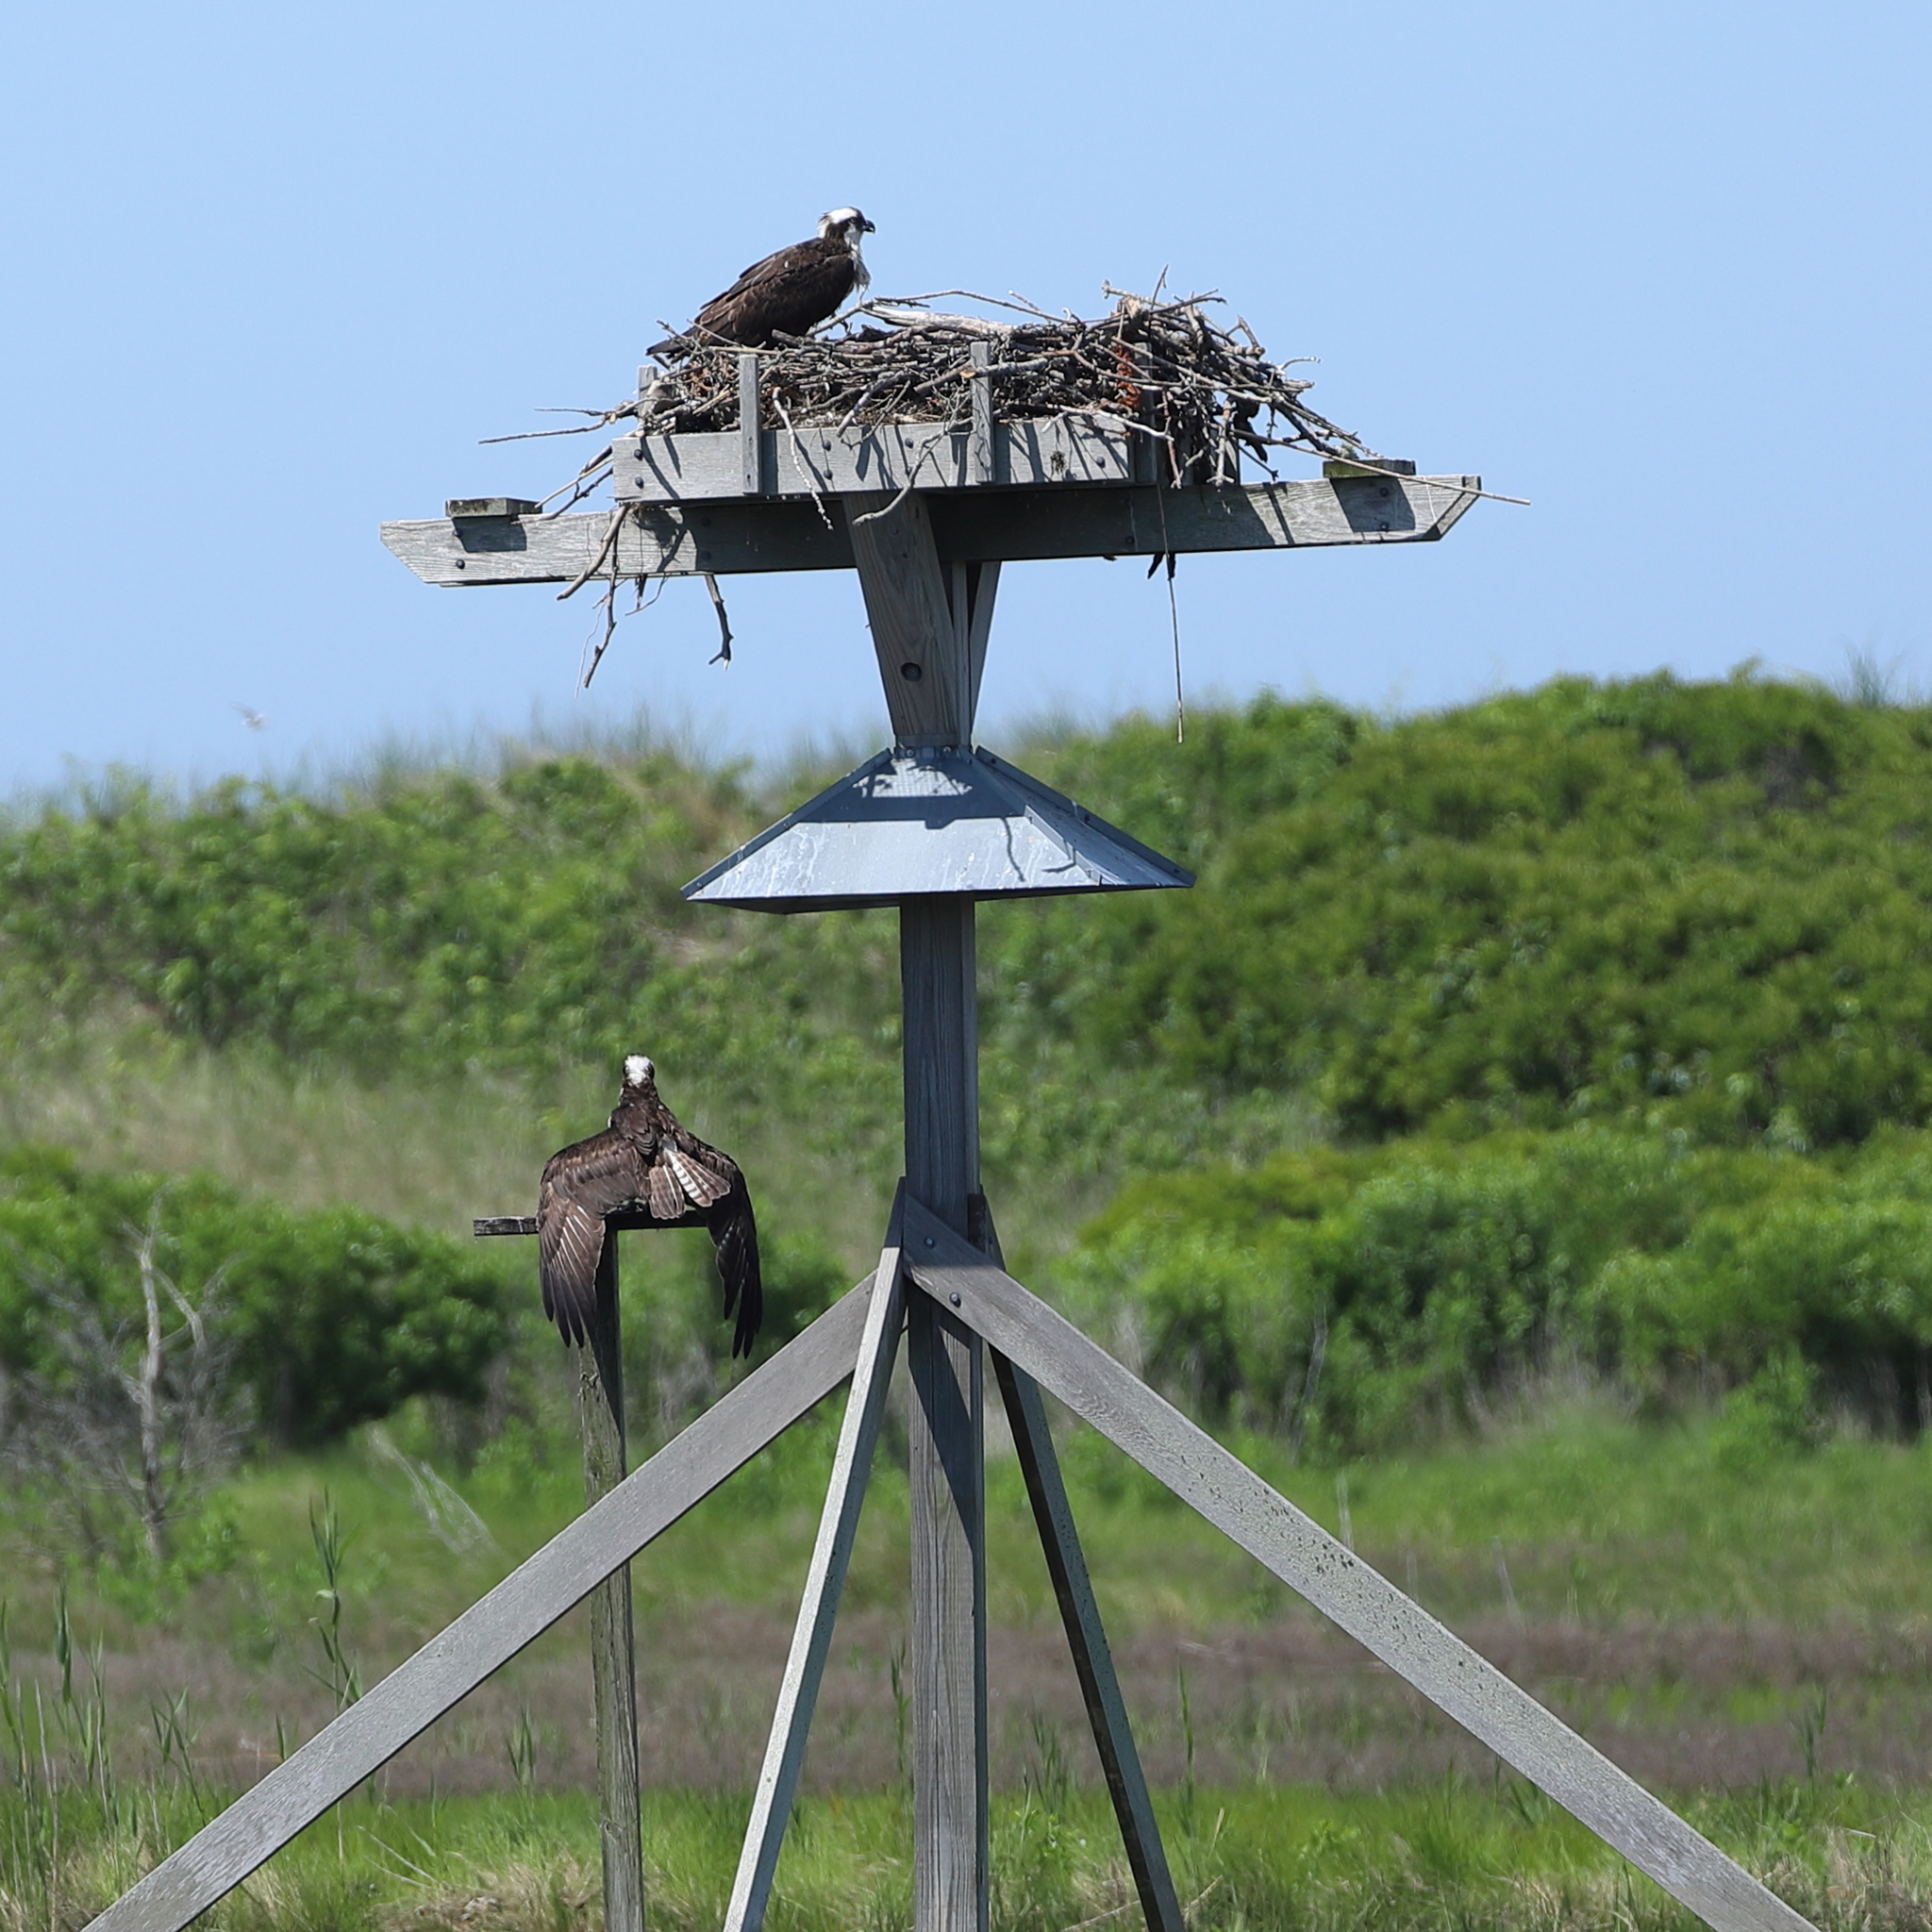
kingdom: Animalia
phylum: Chordata
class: Aves
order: Accipitriformes
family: Pandionidae
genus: Pandion
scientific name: Pandion haliaetus
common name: Osprey
